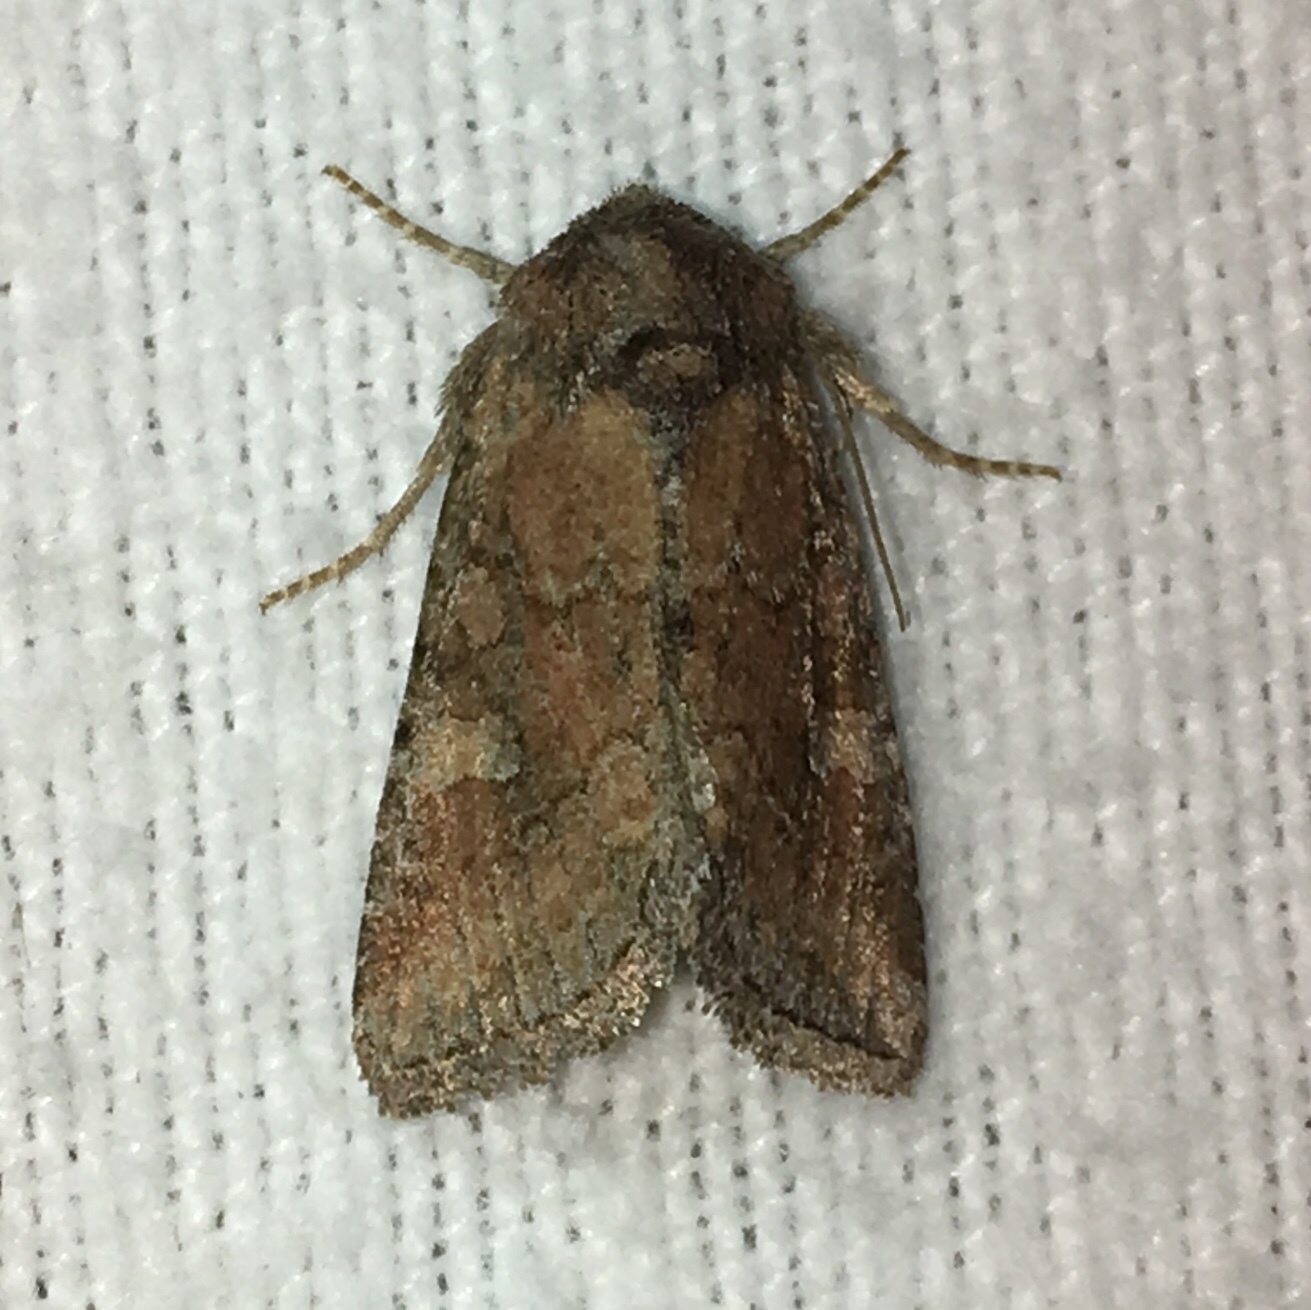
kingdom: Animalia
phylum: Arthropoda
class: Insecta
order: Lepidoptera
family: Noctuidae
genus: Lacinipolia
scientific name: Lacinipolia meditata
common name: Thinker moth
